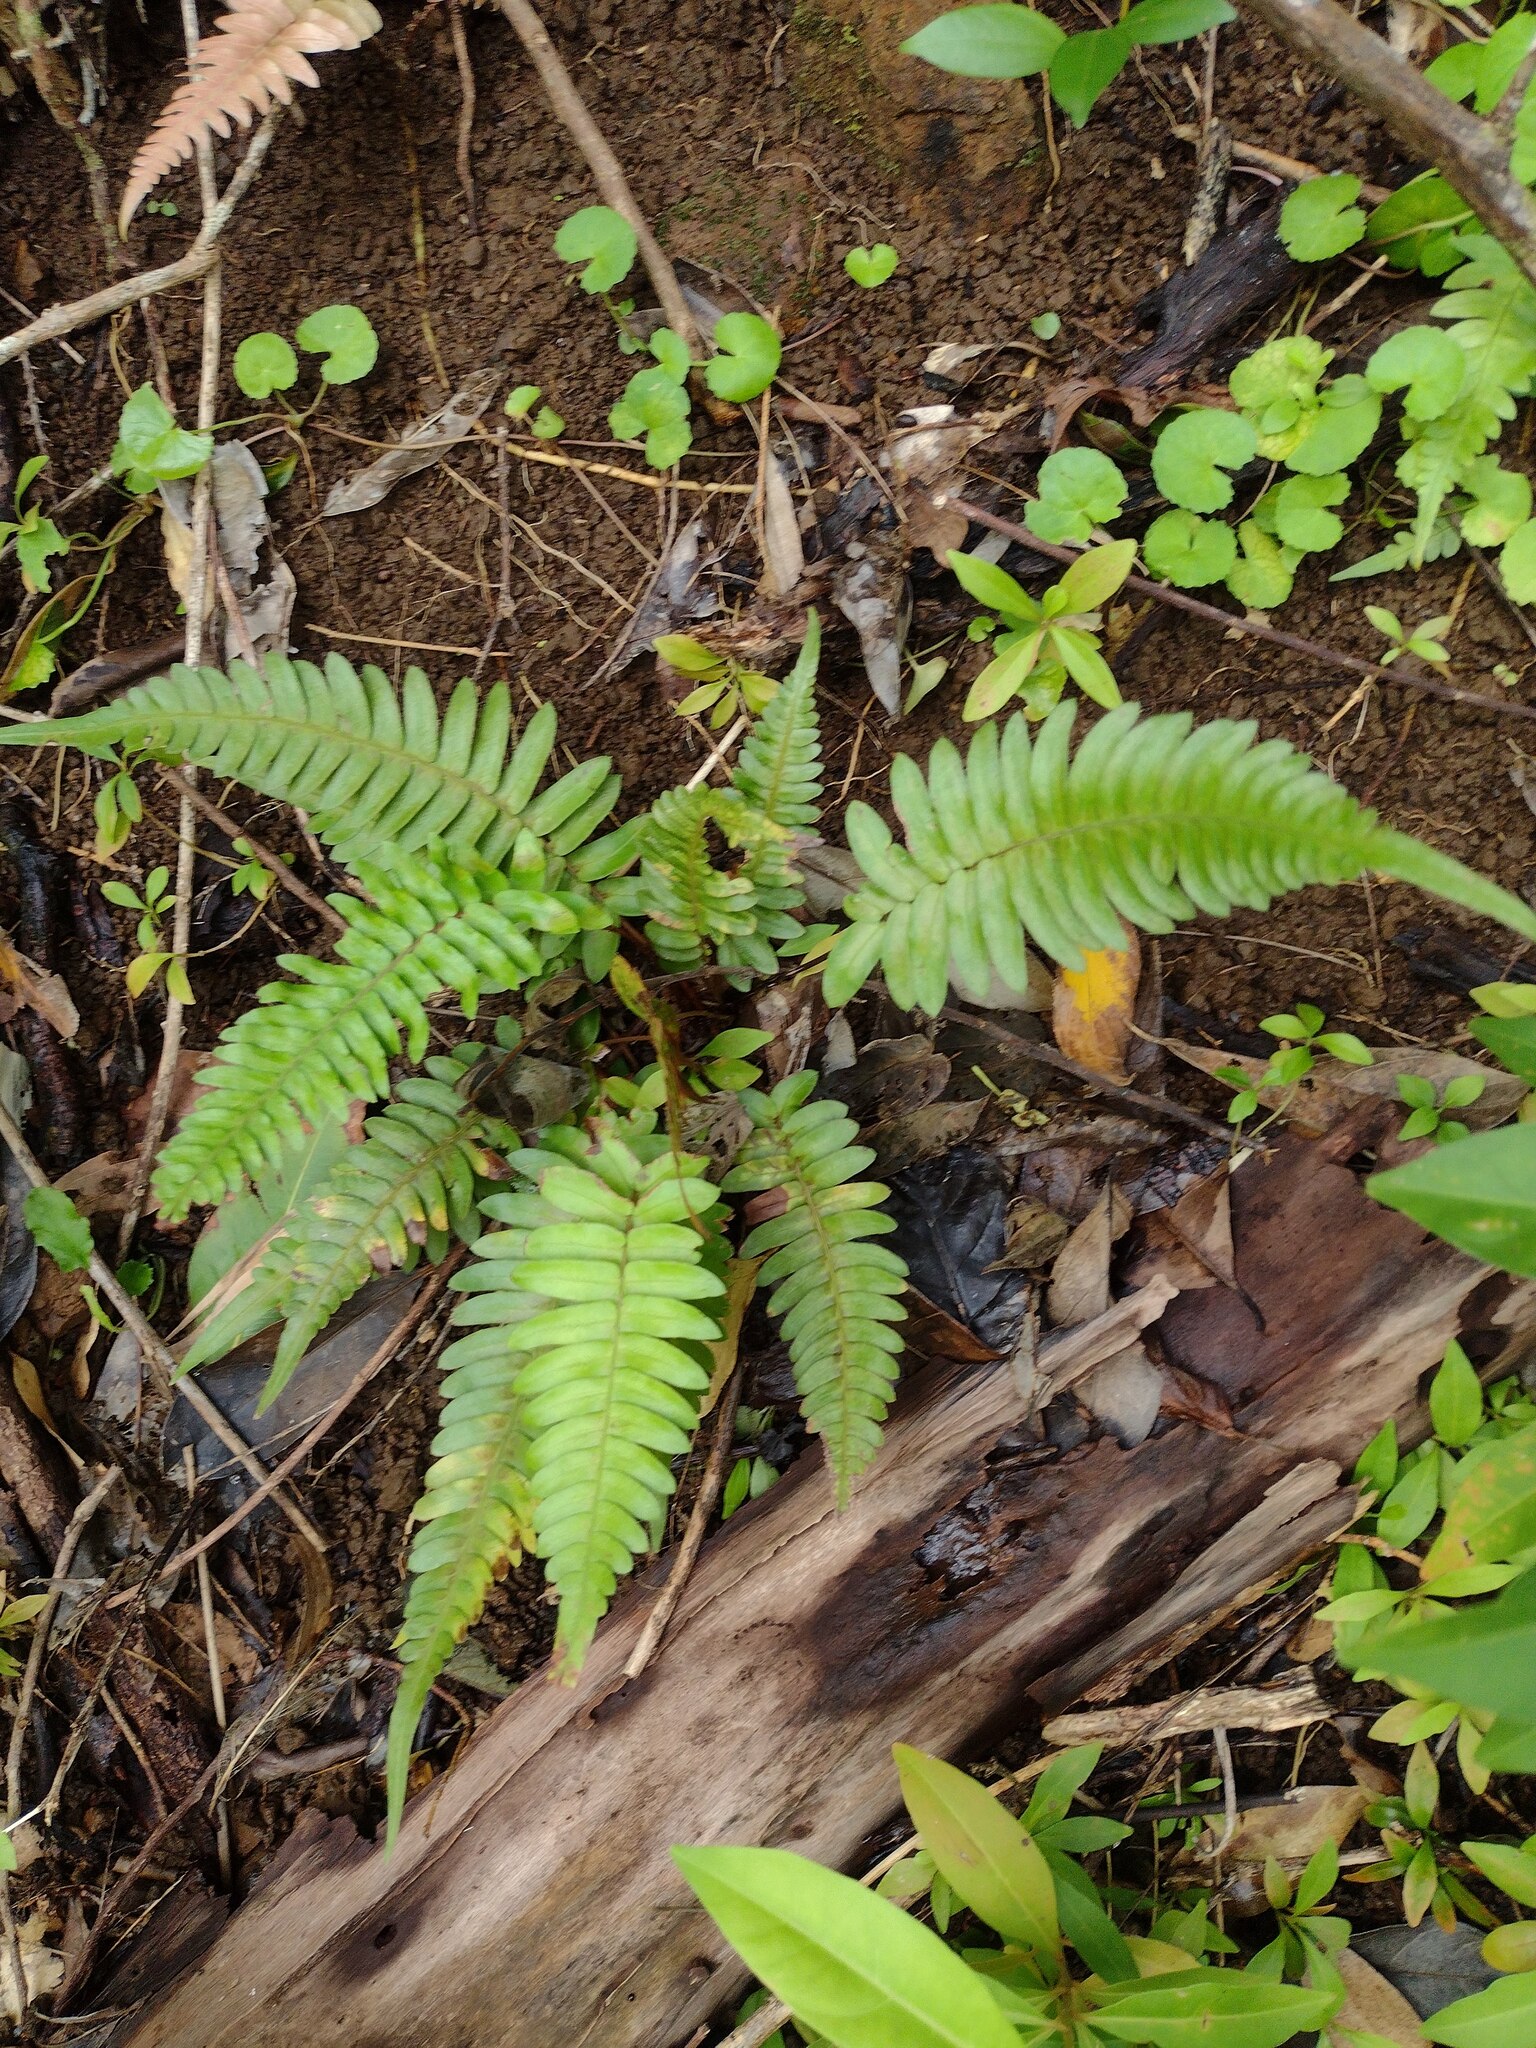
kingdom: Plantae
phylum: Tracheophyta
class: Polypodiopsida
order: Polypodiales
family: Blechnaceae
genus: Blechnum
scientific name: Blechnum appendiculatum
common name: Palm fern
